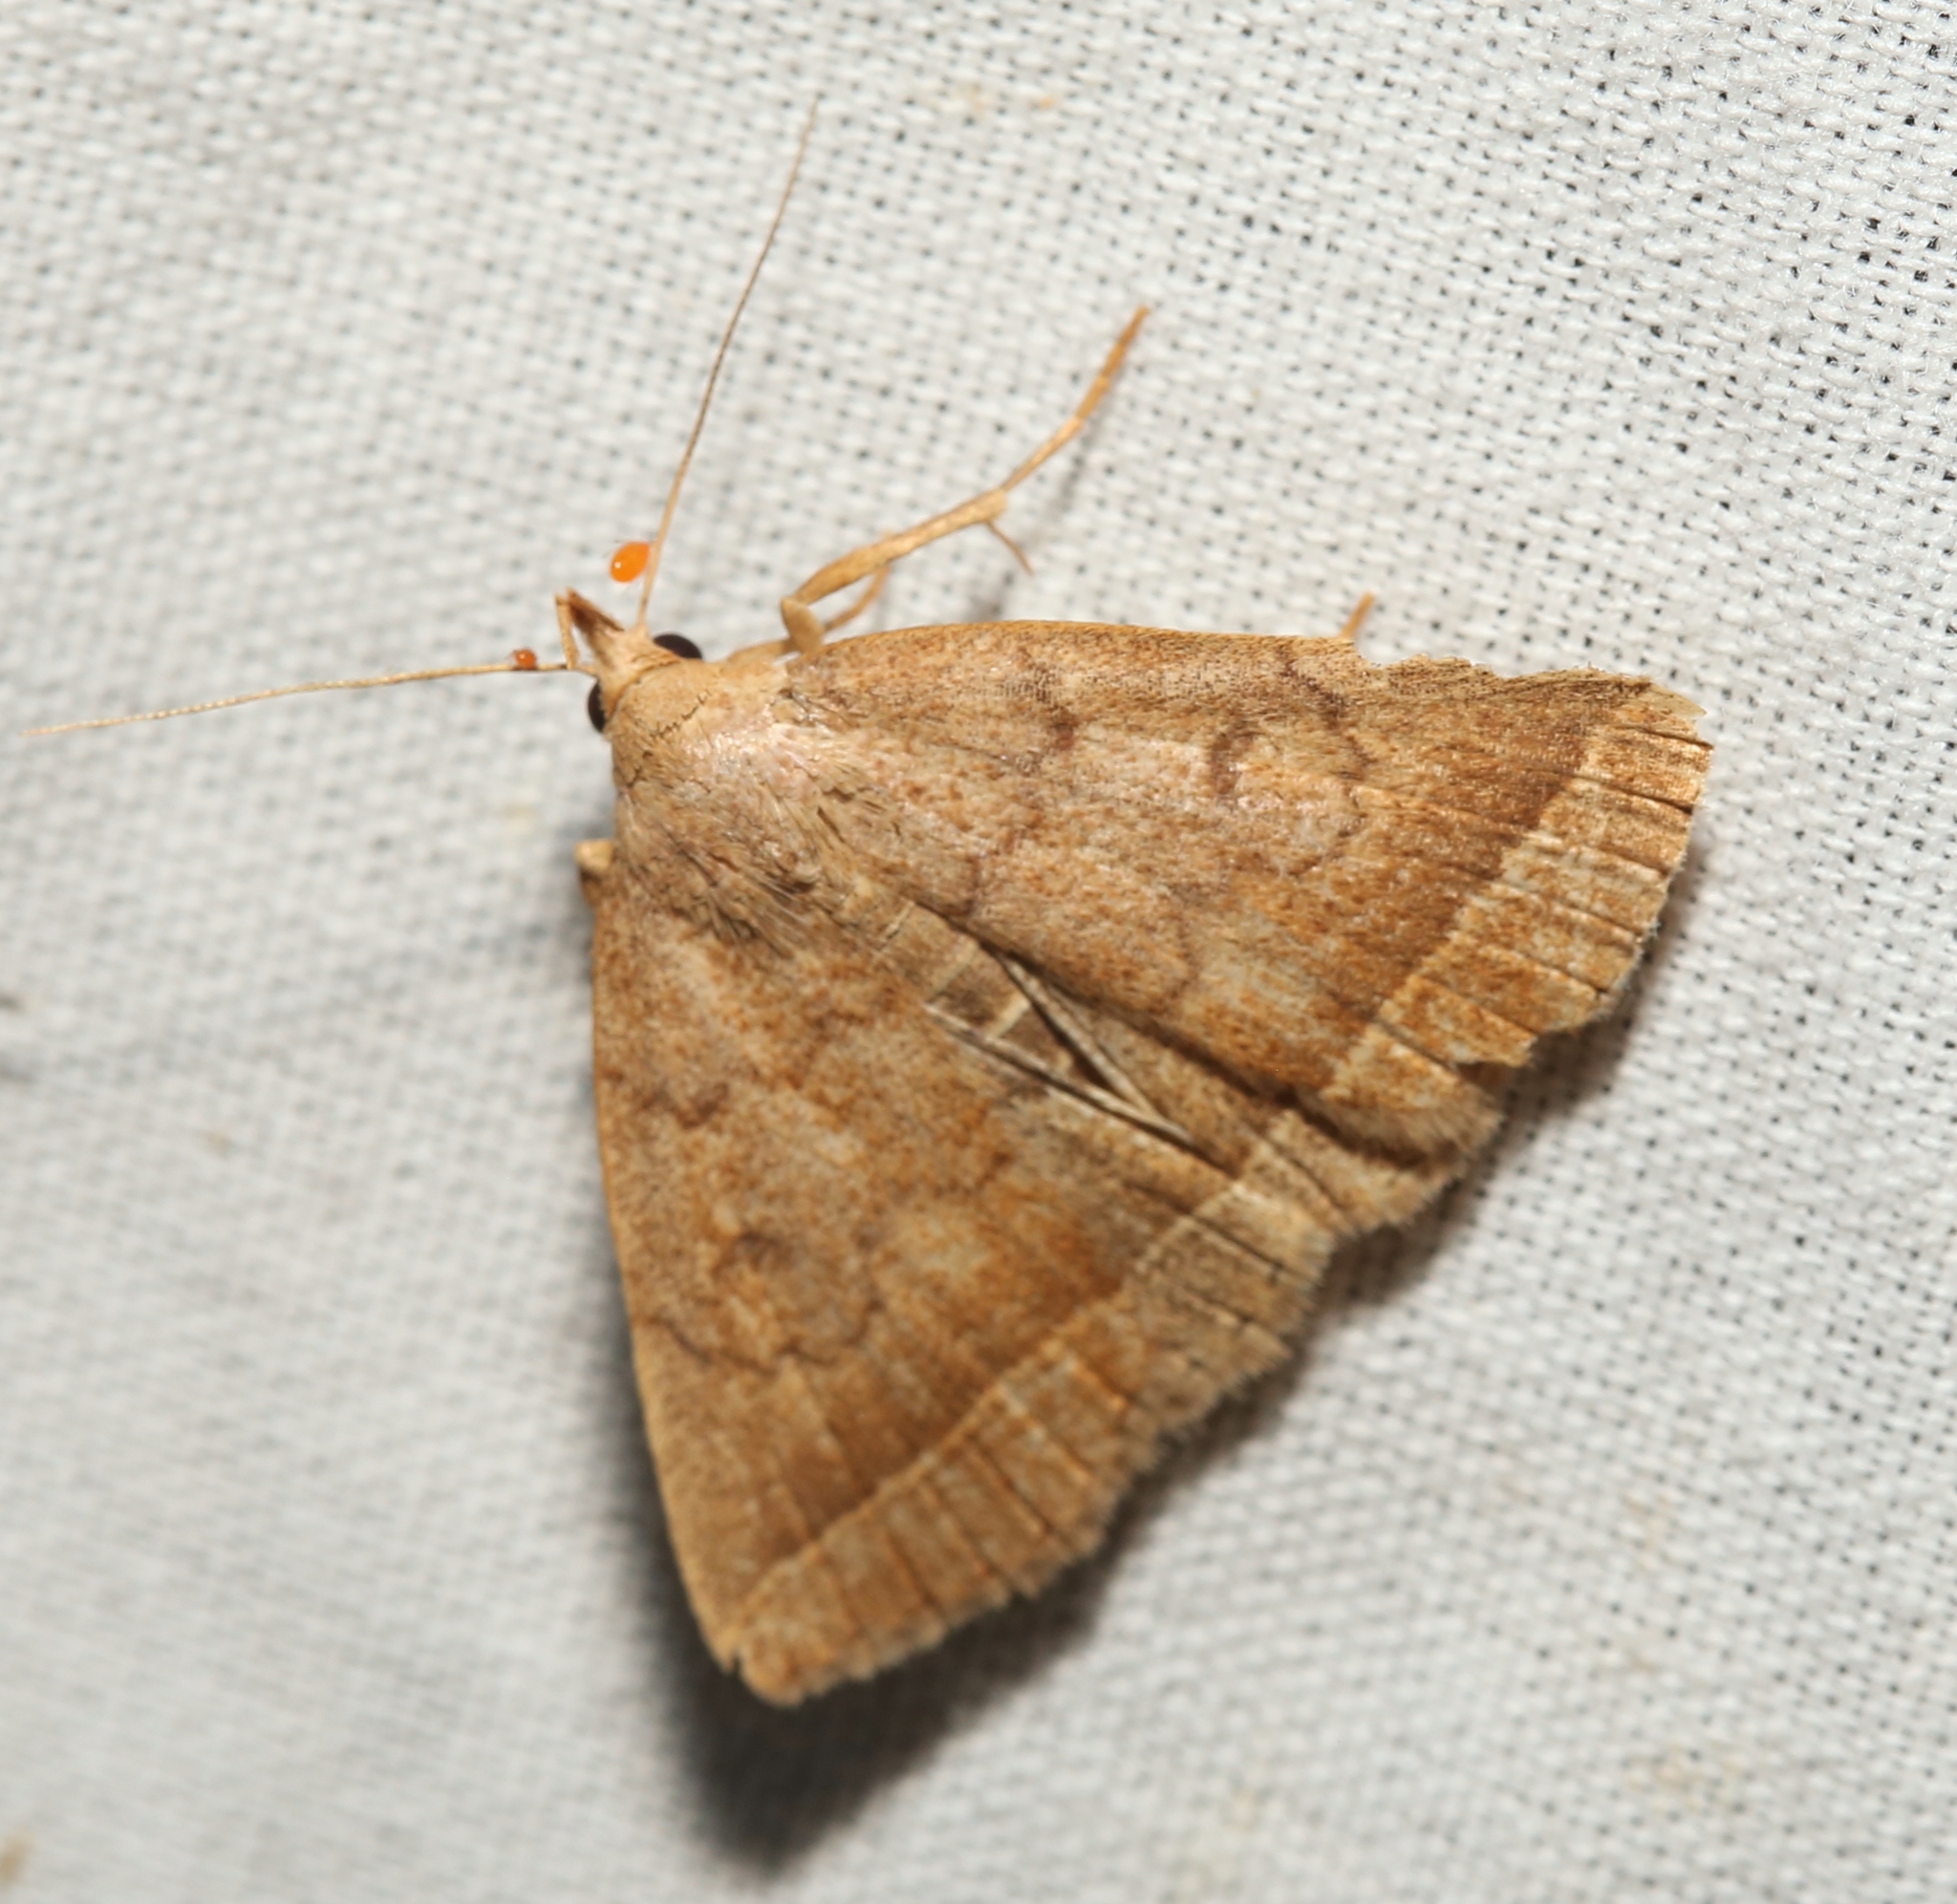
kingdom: Animalia
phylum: Arthropoda
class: Insecta
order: Lepidoptera
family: Erebidae
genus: Zanclognatha
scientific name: Zanclognatha jacchusalis
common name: Yellowish zanclognatha
